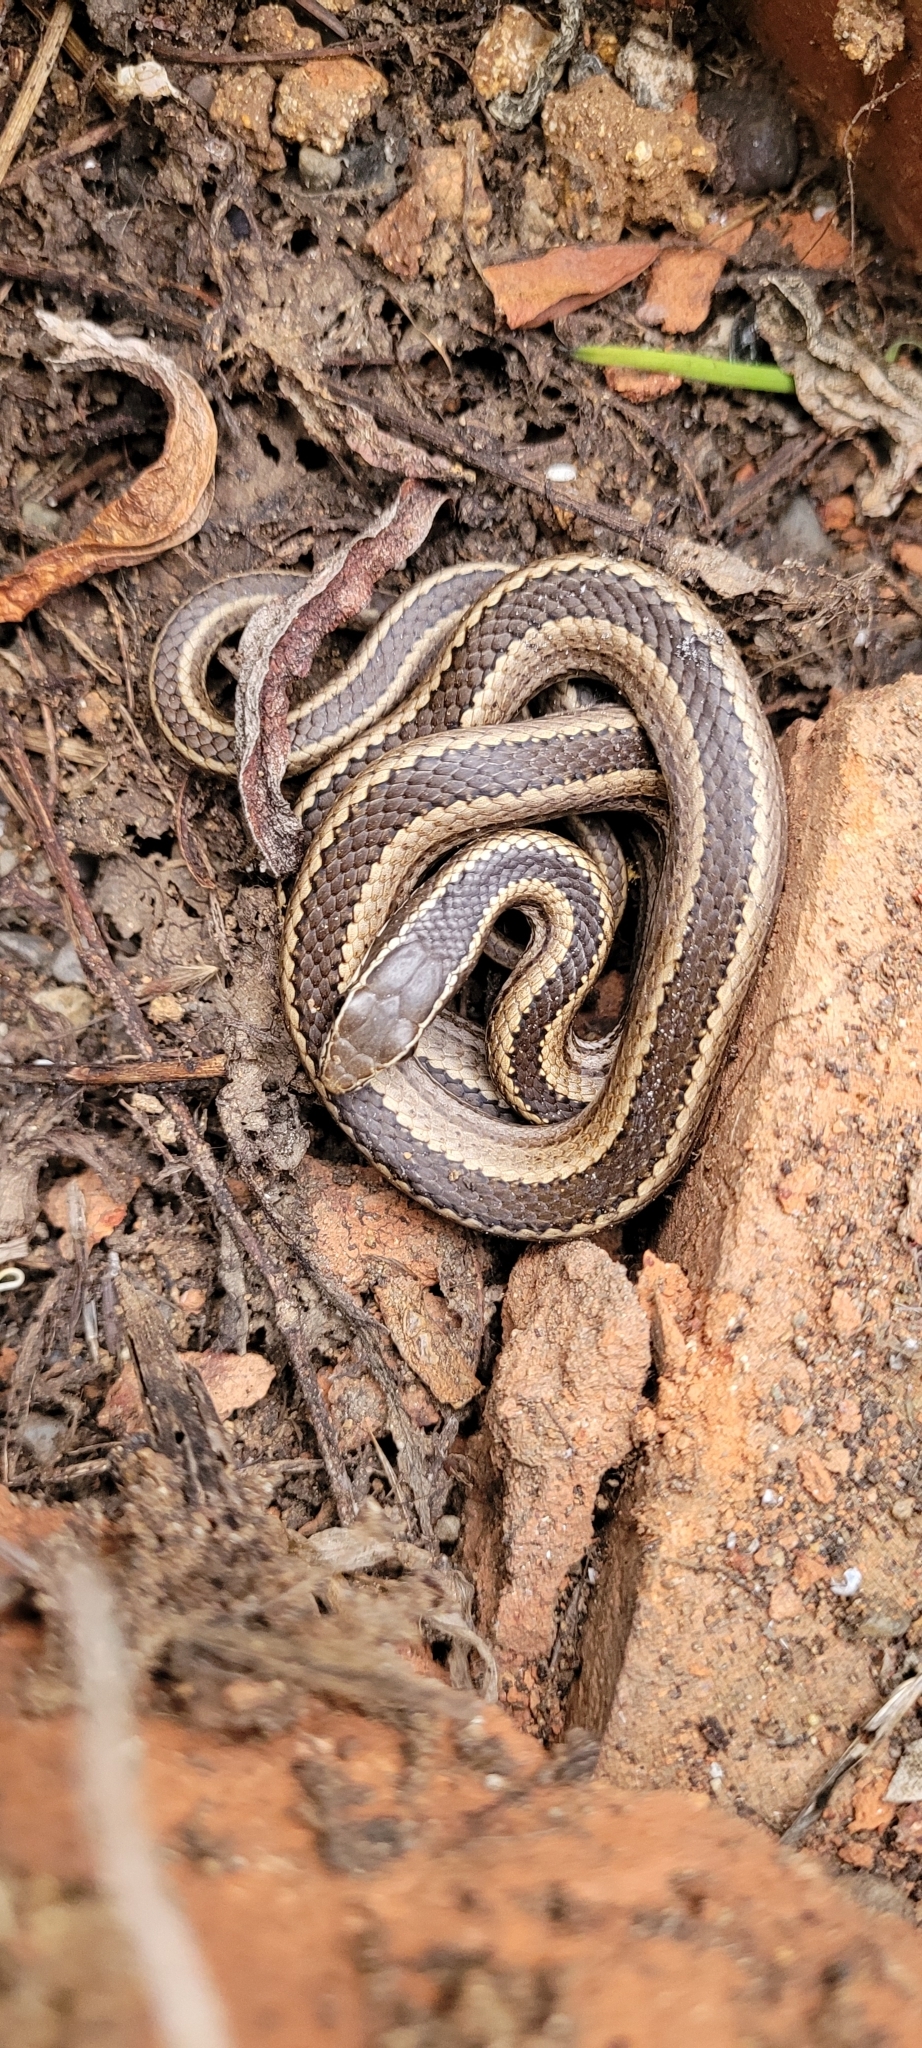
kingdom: Animalia
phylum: Chordata
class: Squamata
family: Colubridae
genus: Philodryas
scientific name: Philodryas chamissonis
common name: Chilean green racer
